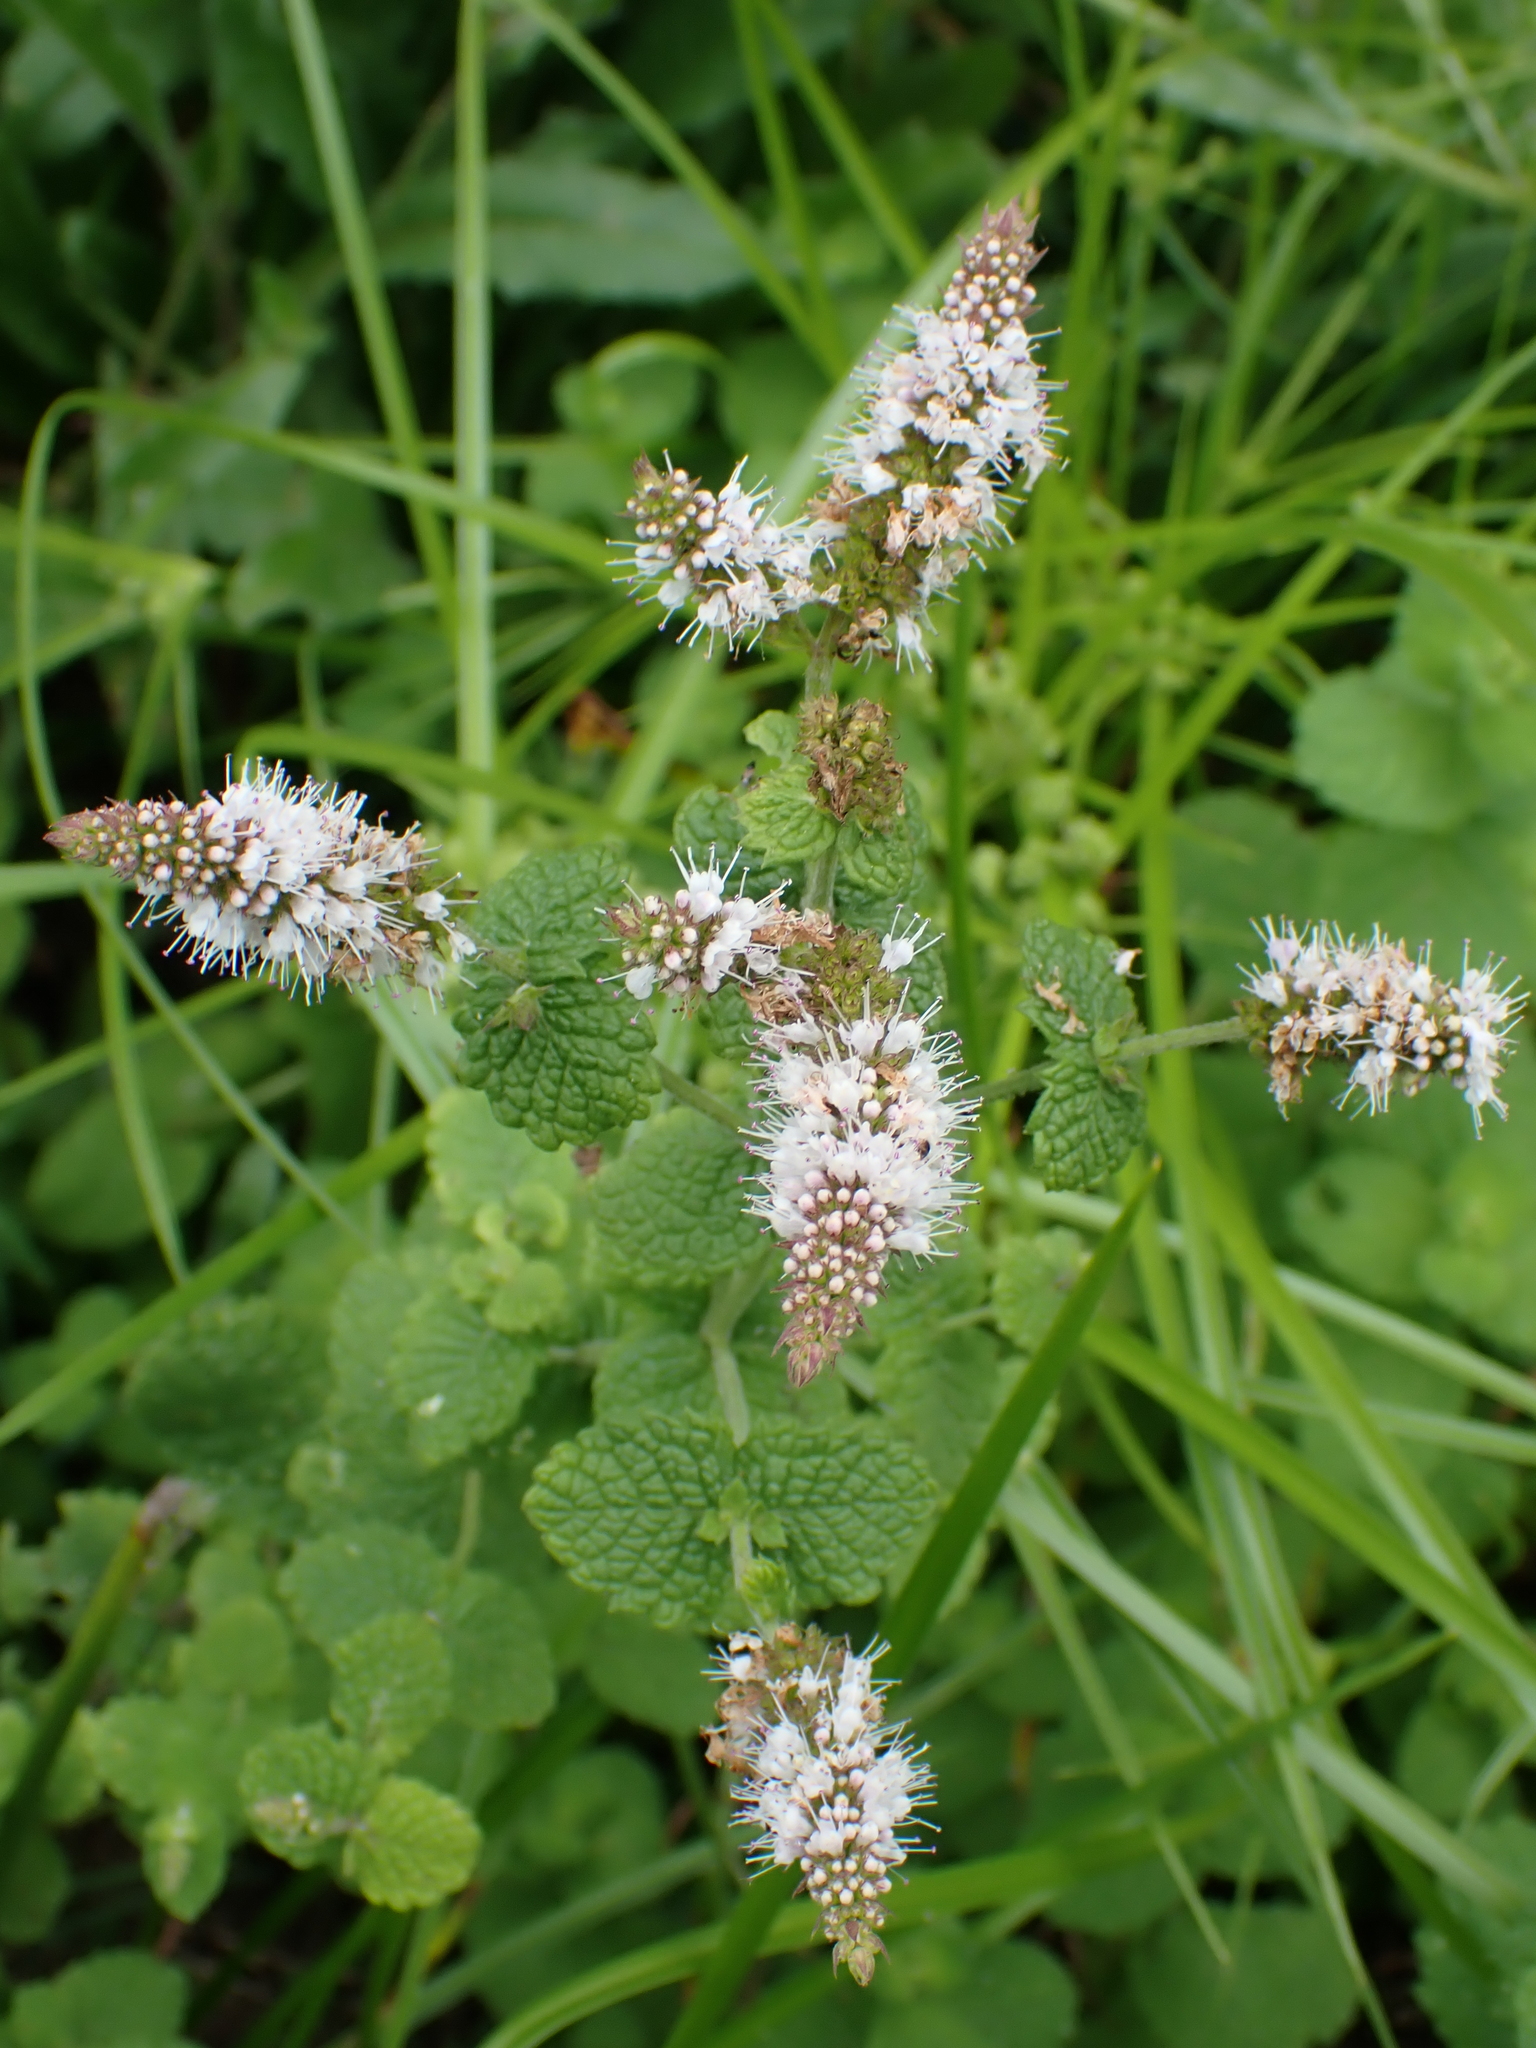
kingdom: Plantae
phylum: Tracheophyta
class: Magnoliopsida
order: Lamiales
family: Lamiaceae
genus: Mentha
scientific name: Mentha suaveolens
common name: Apple mint
